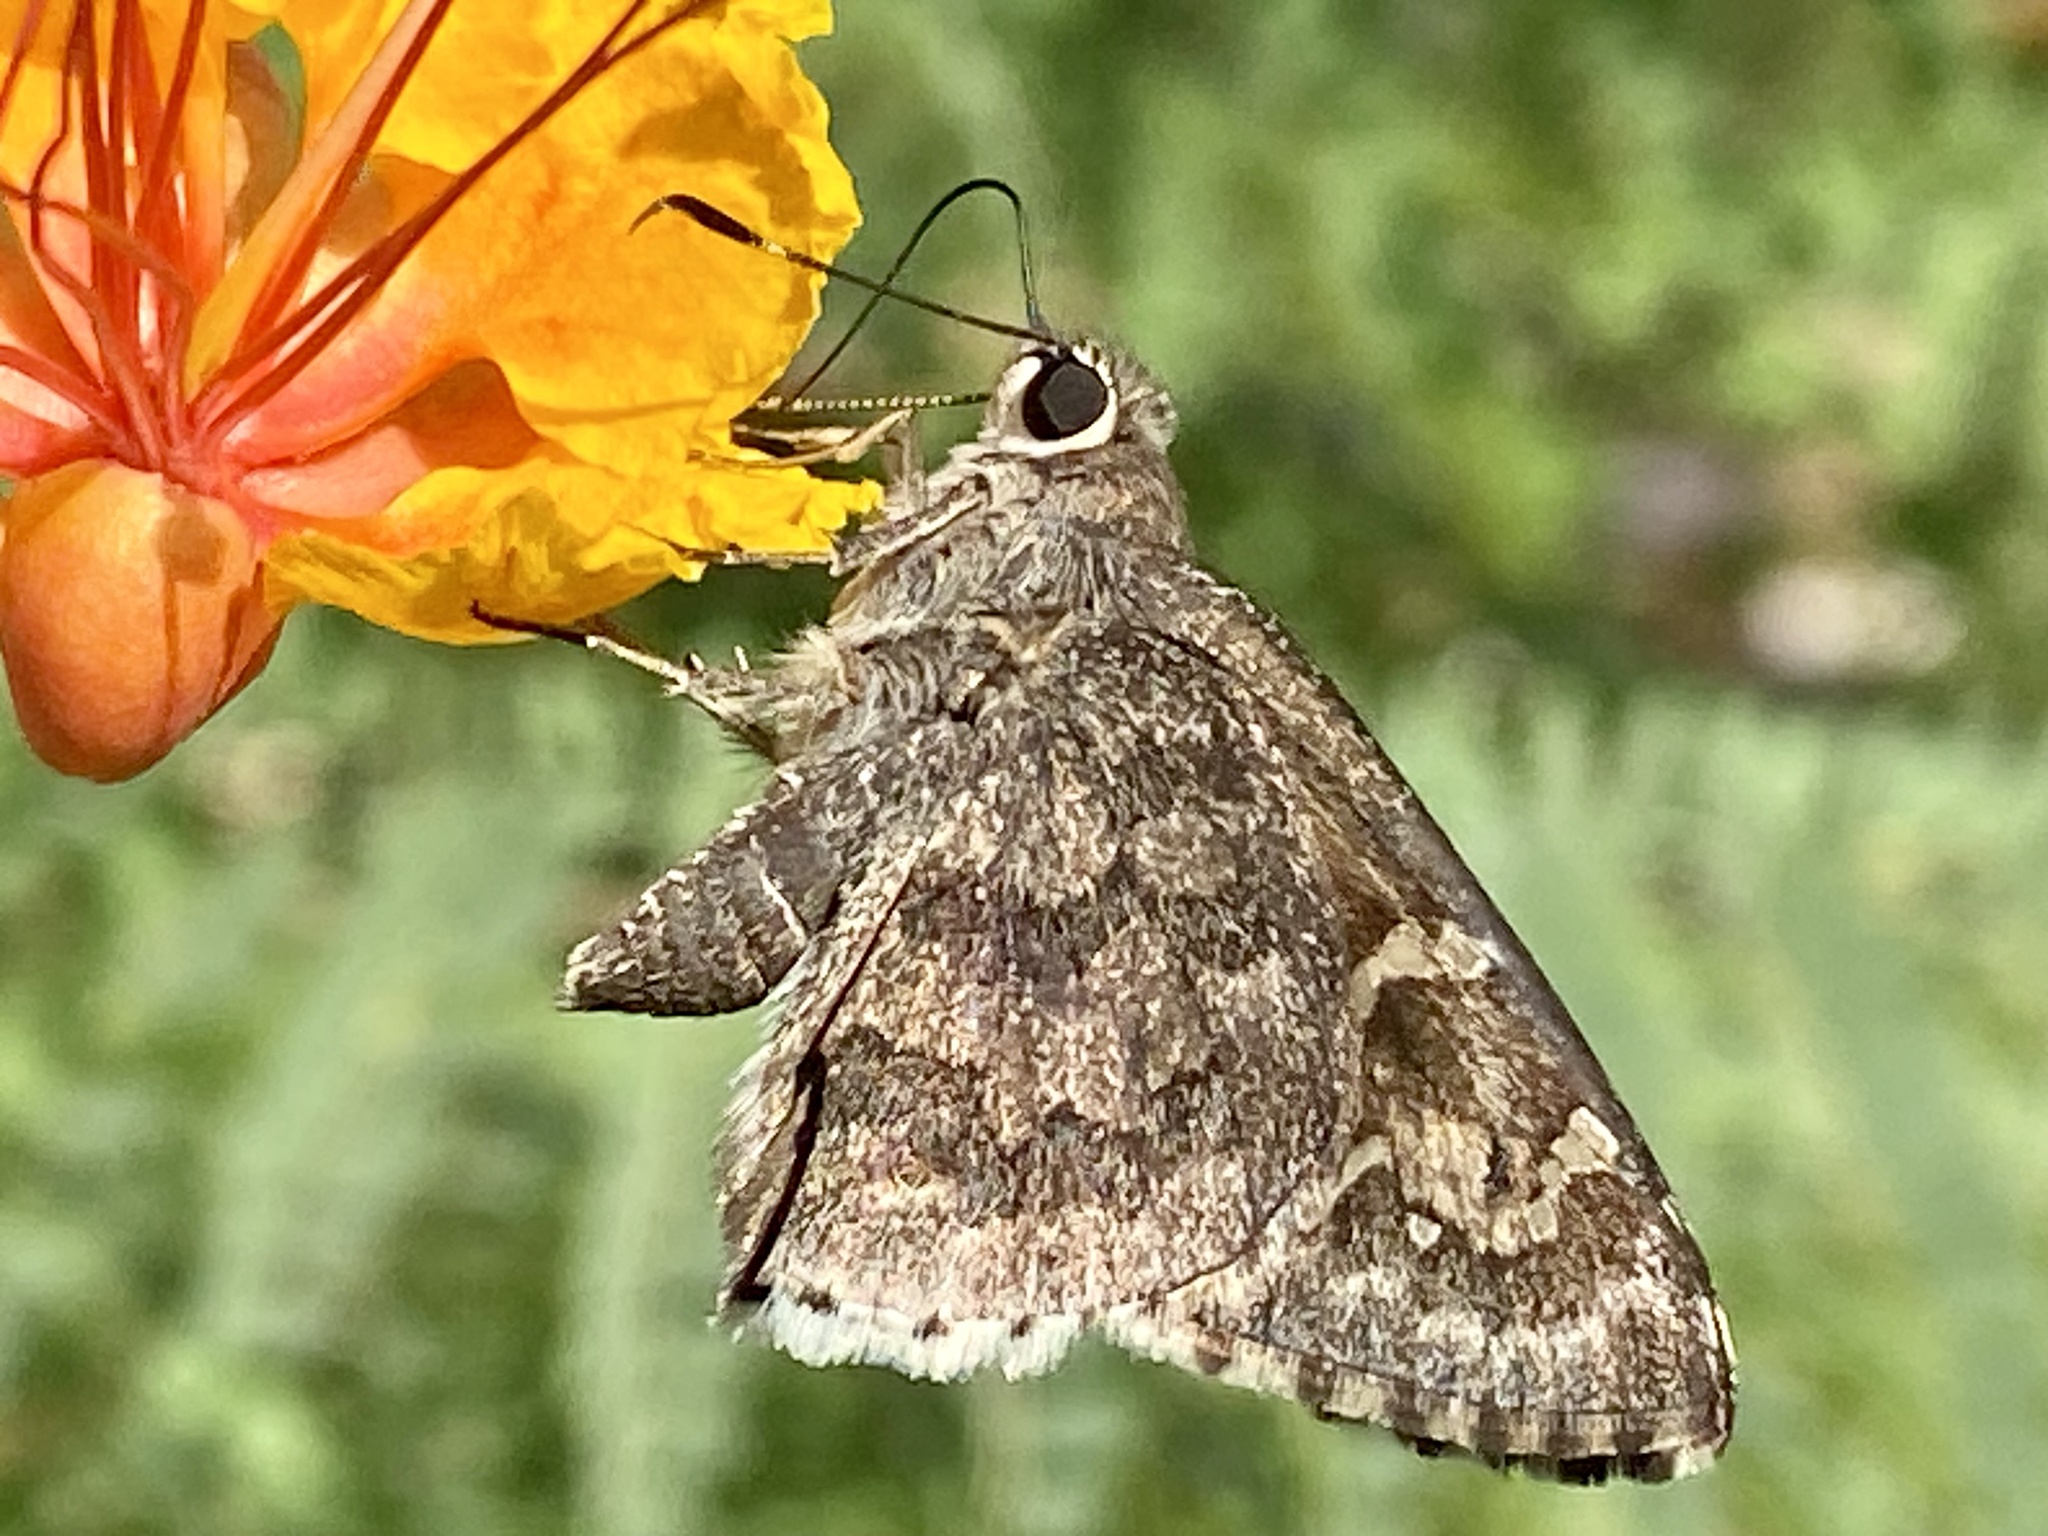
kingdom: Animalia
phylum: Arthropoda
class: Insecta
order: Lepidoptera
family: Hesperiidae
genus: Cogia
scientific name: Cogia hippalus
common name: Acacia skipper
